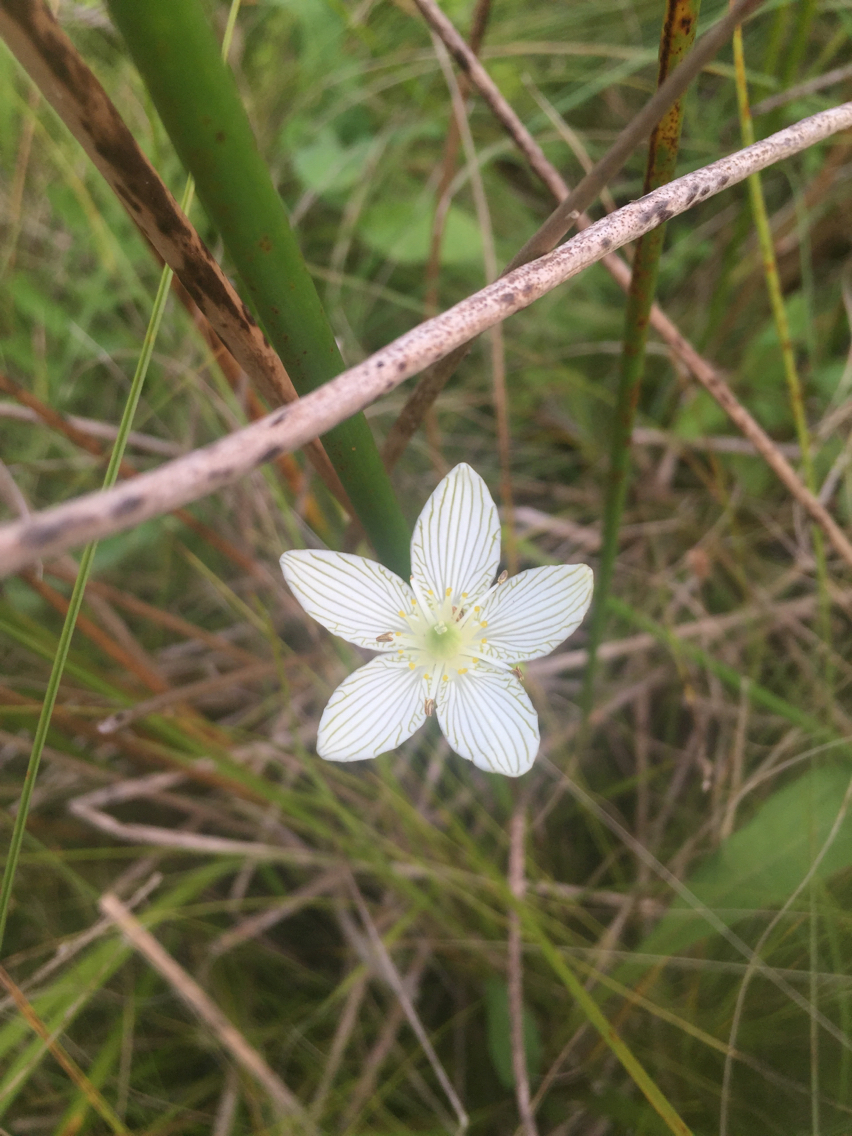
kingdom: Plantae
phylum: Tracheophyta
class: Magnoliopsida
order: Celastrales
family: Parnassiaceae
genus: Parnassia
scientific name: Parnassia glauca
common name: American grass-of-parnassus
